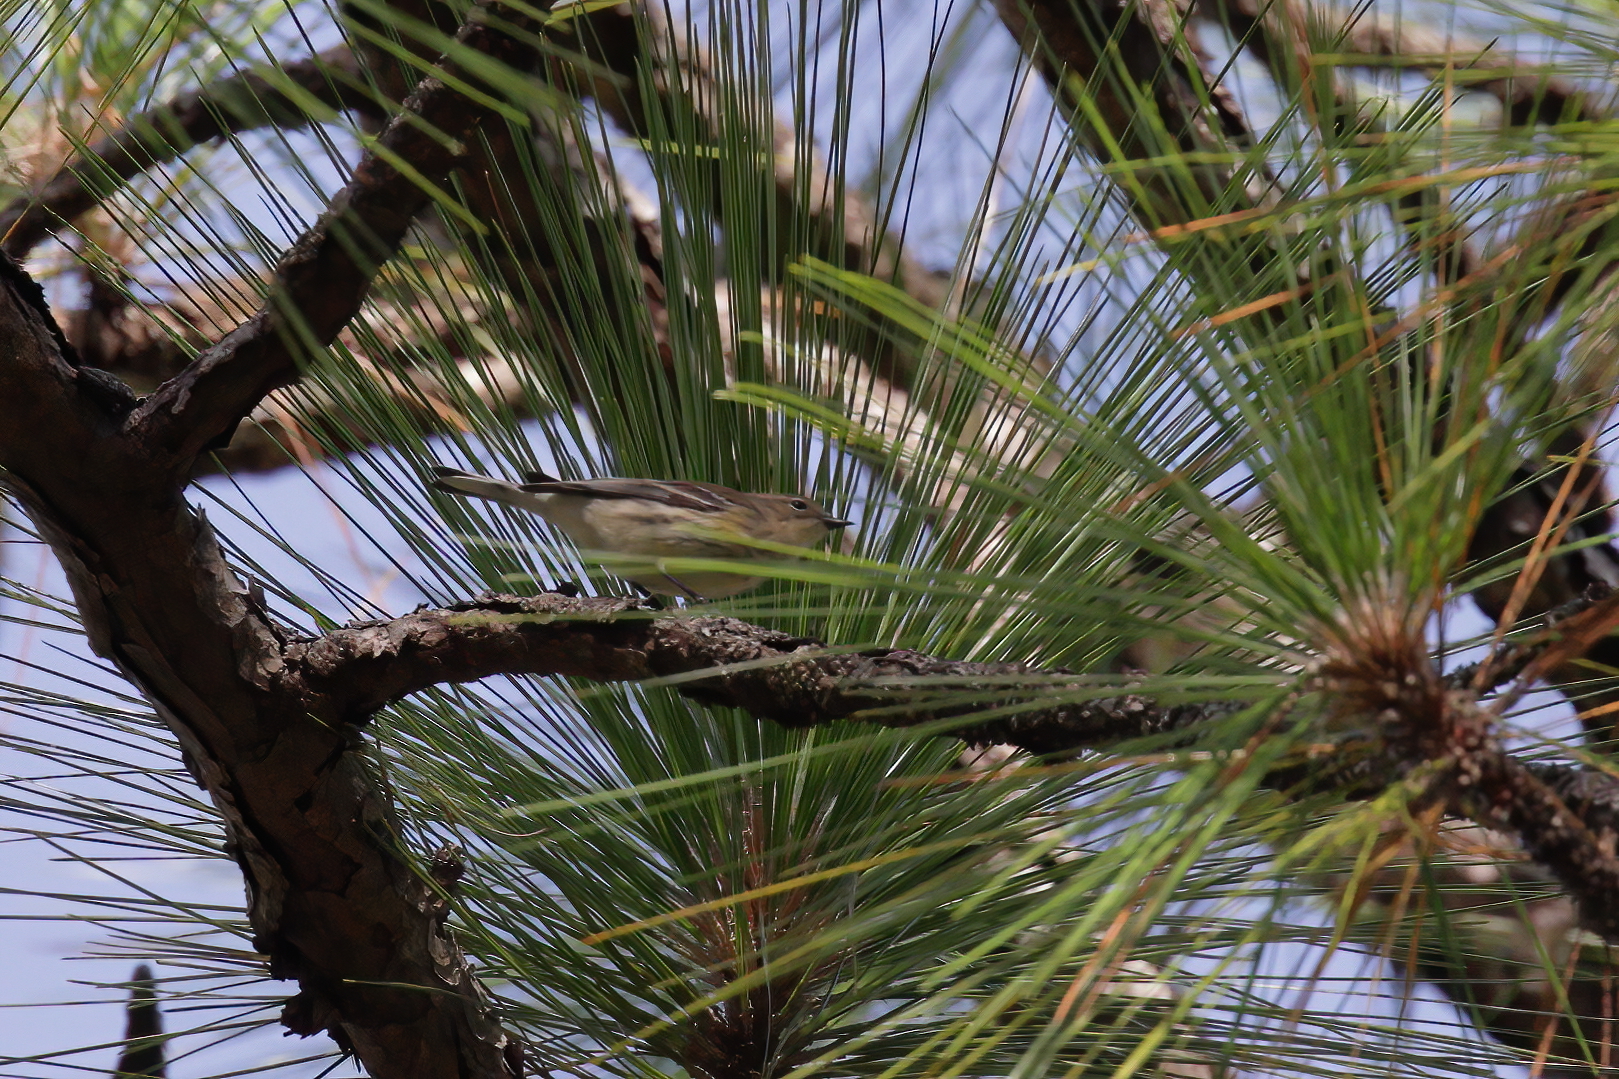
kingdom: Animalia
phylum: Chordata
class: Aves
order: Passeriformes
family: Parulidae
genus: Setophaga
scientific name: Setophaga coronata
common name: Myrtle warbler
